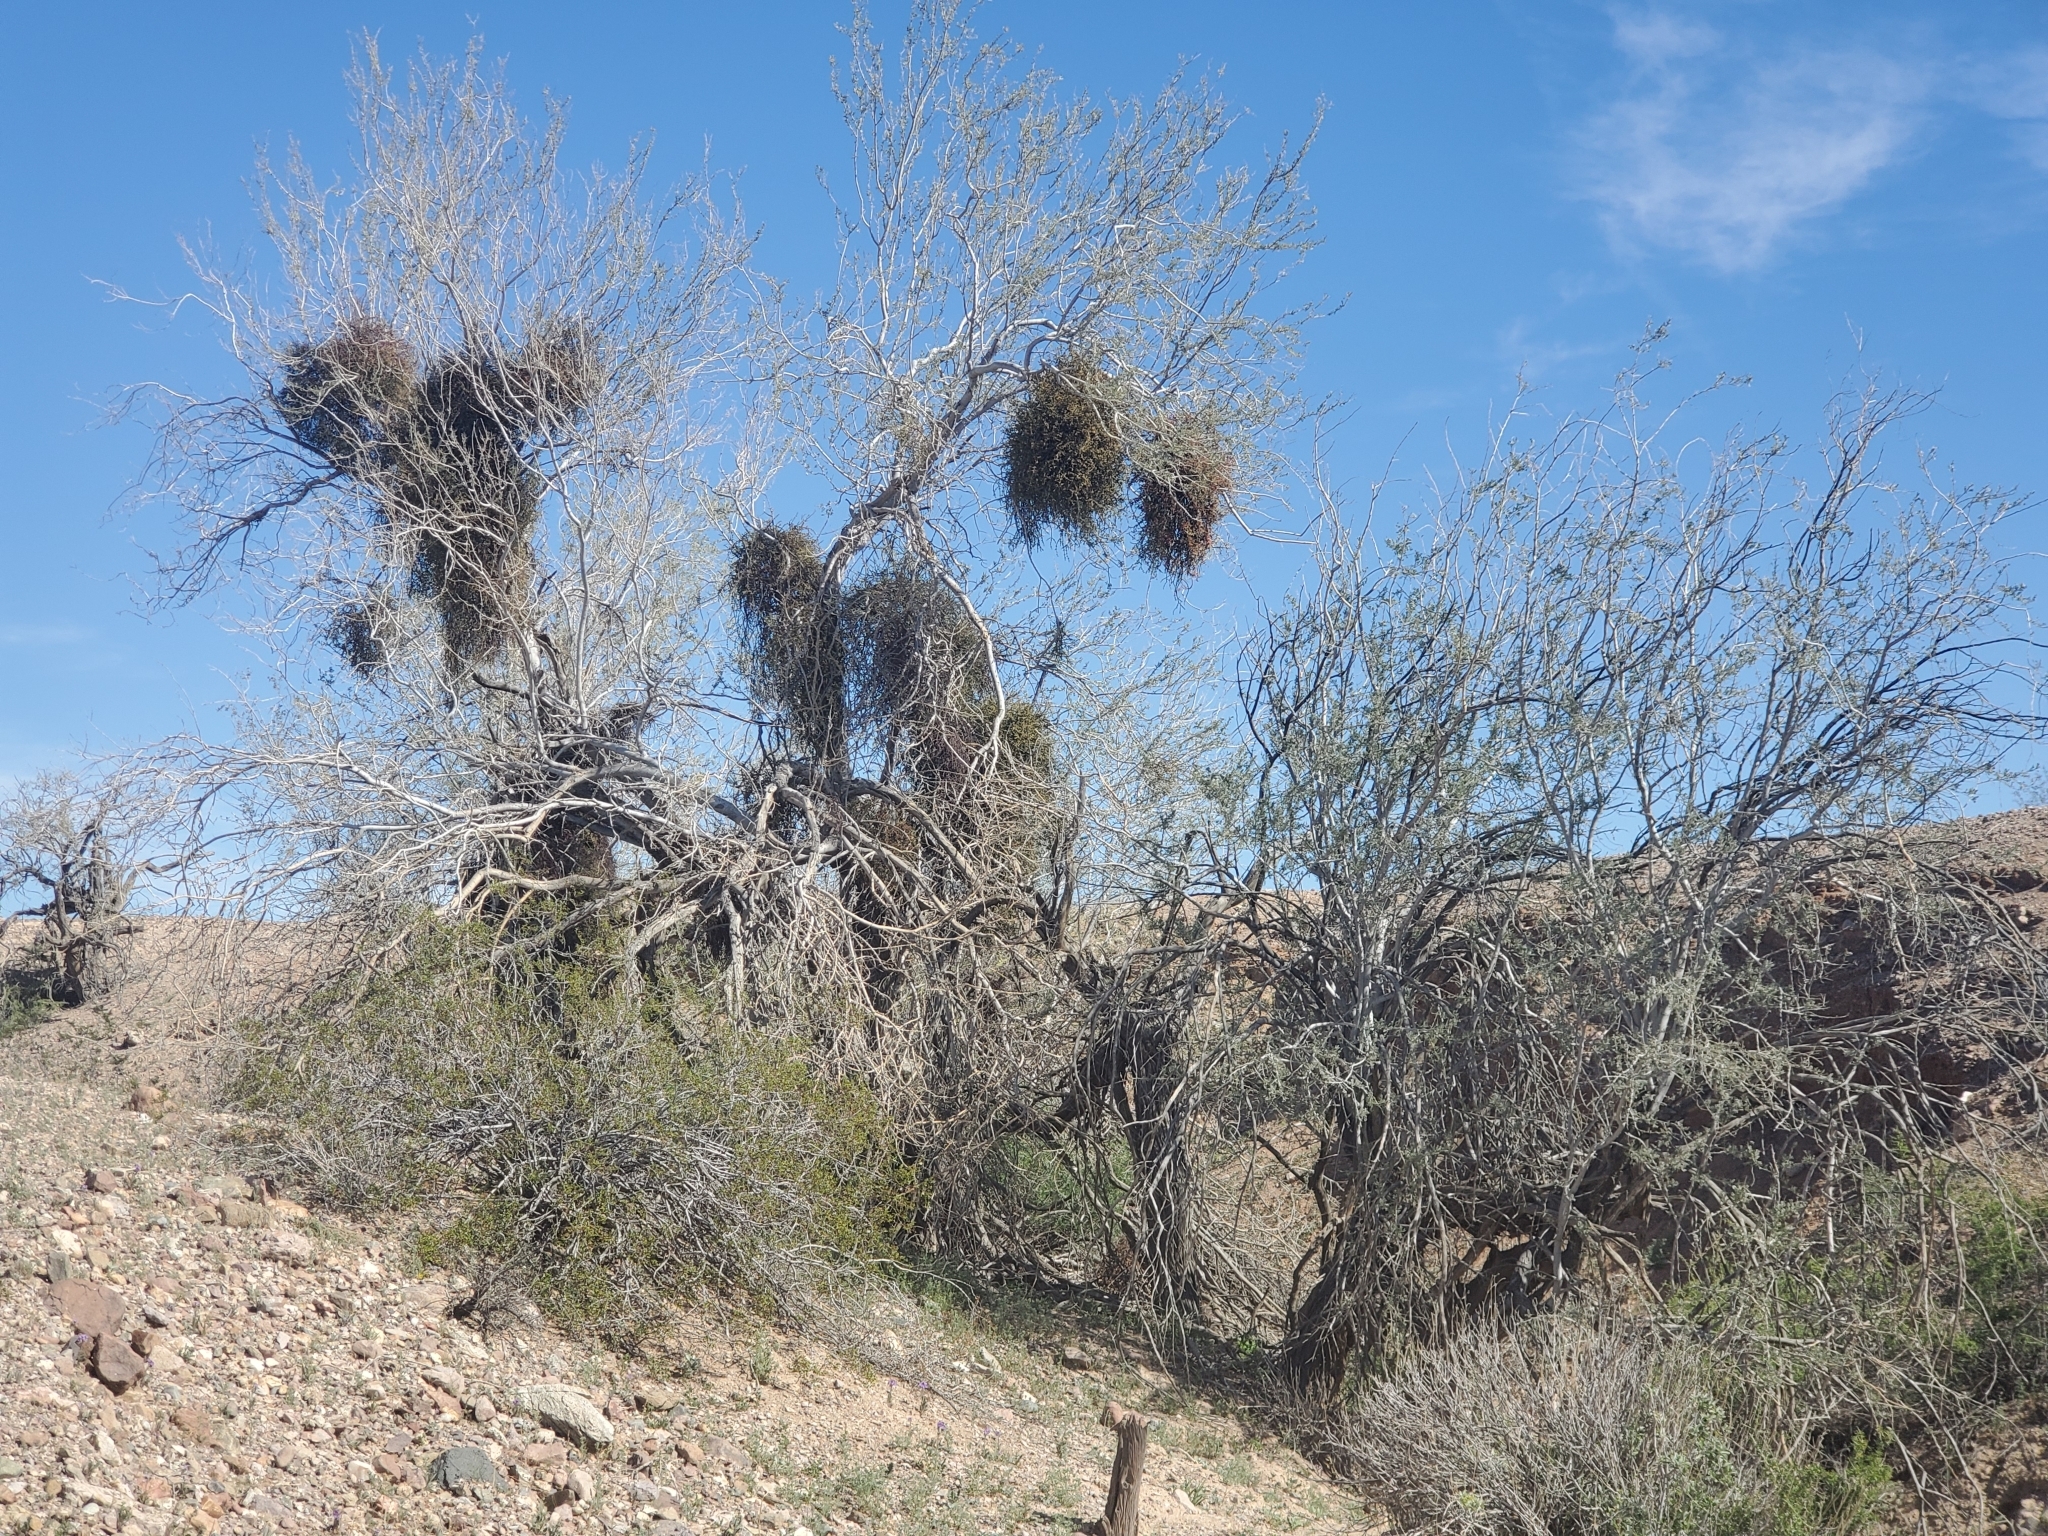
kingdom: Plantae
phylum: Tracheophyta
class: Magnoliopsida
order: Fabales
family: Fabaceae
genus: Olneya
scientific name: Olneya tesota
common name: Desert ironwood
